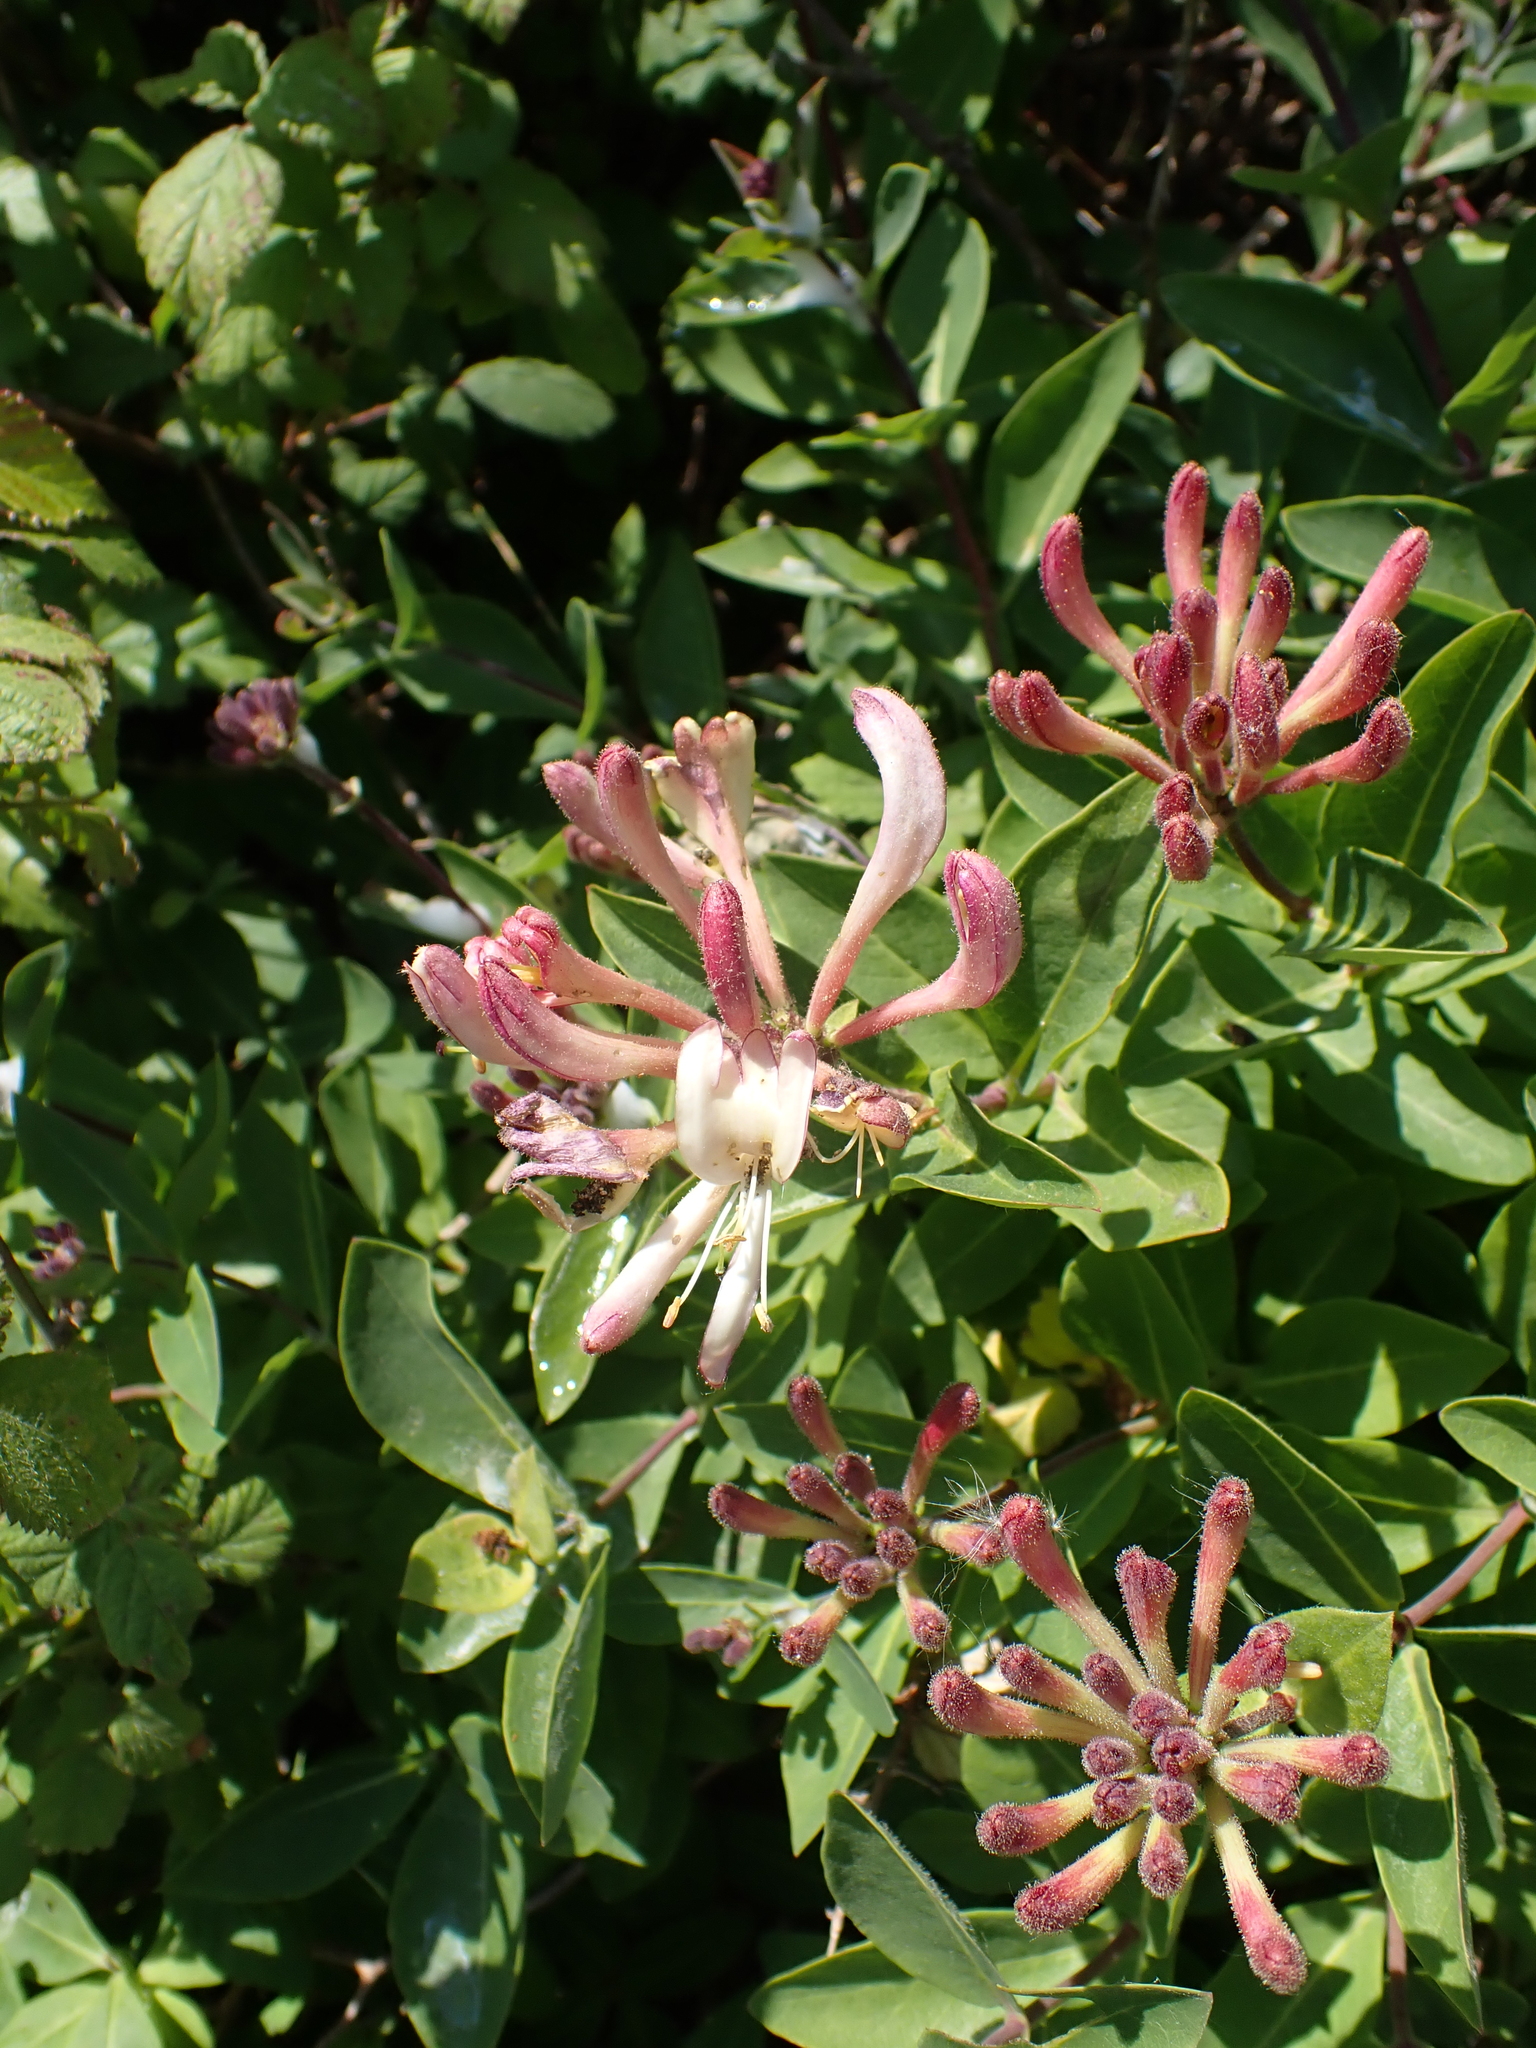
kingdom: Plantae
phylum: Tracheophyta
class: Magnoliopsida
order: Dipsacales
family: Caprifoliaceae
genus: Lonicera
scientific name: Lonicera periclymenum
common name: European honeysuckle
